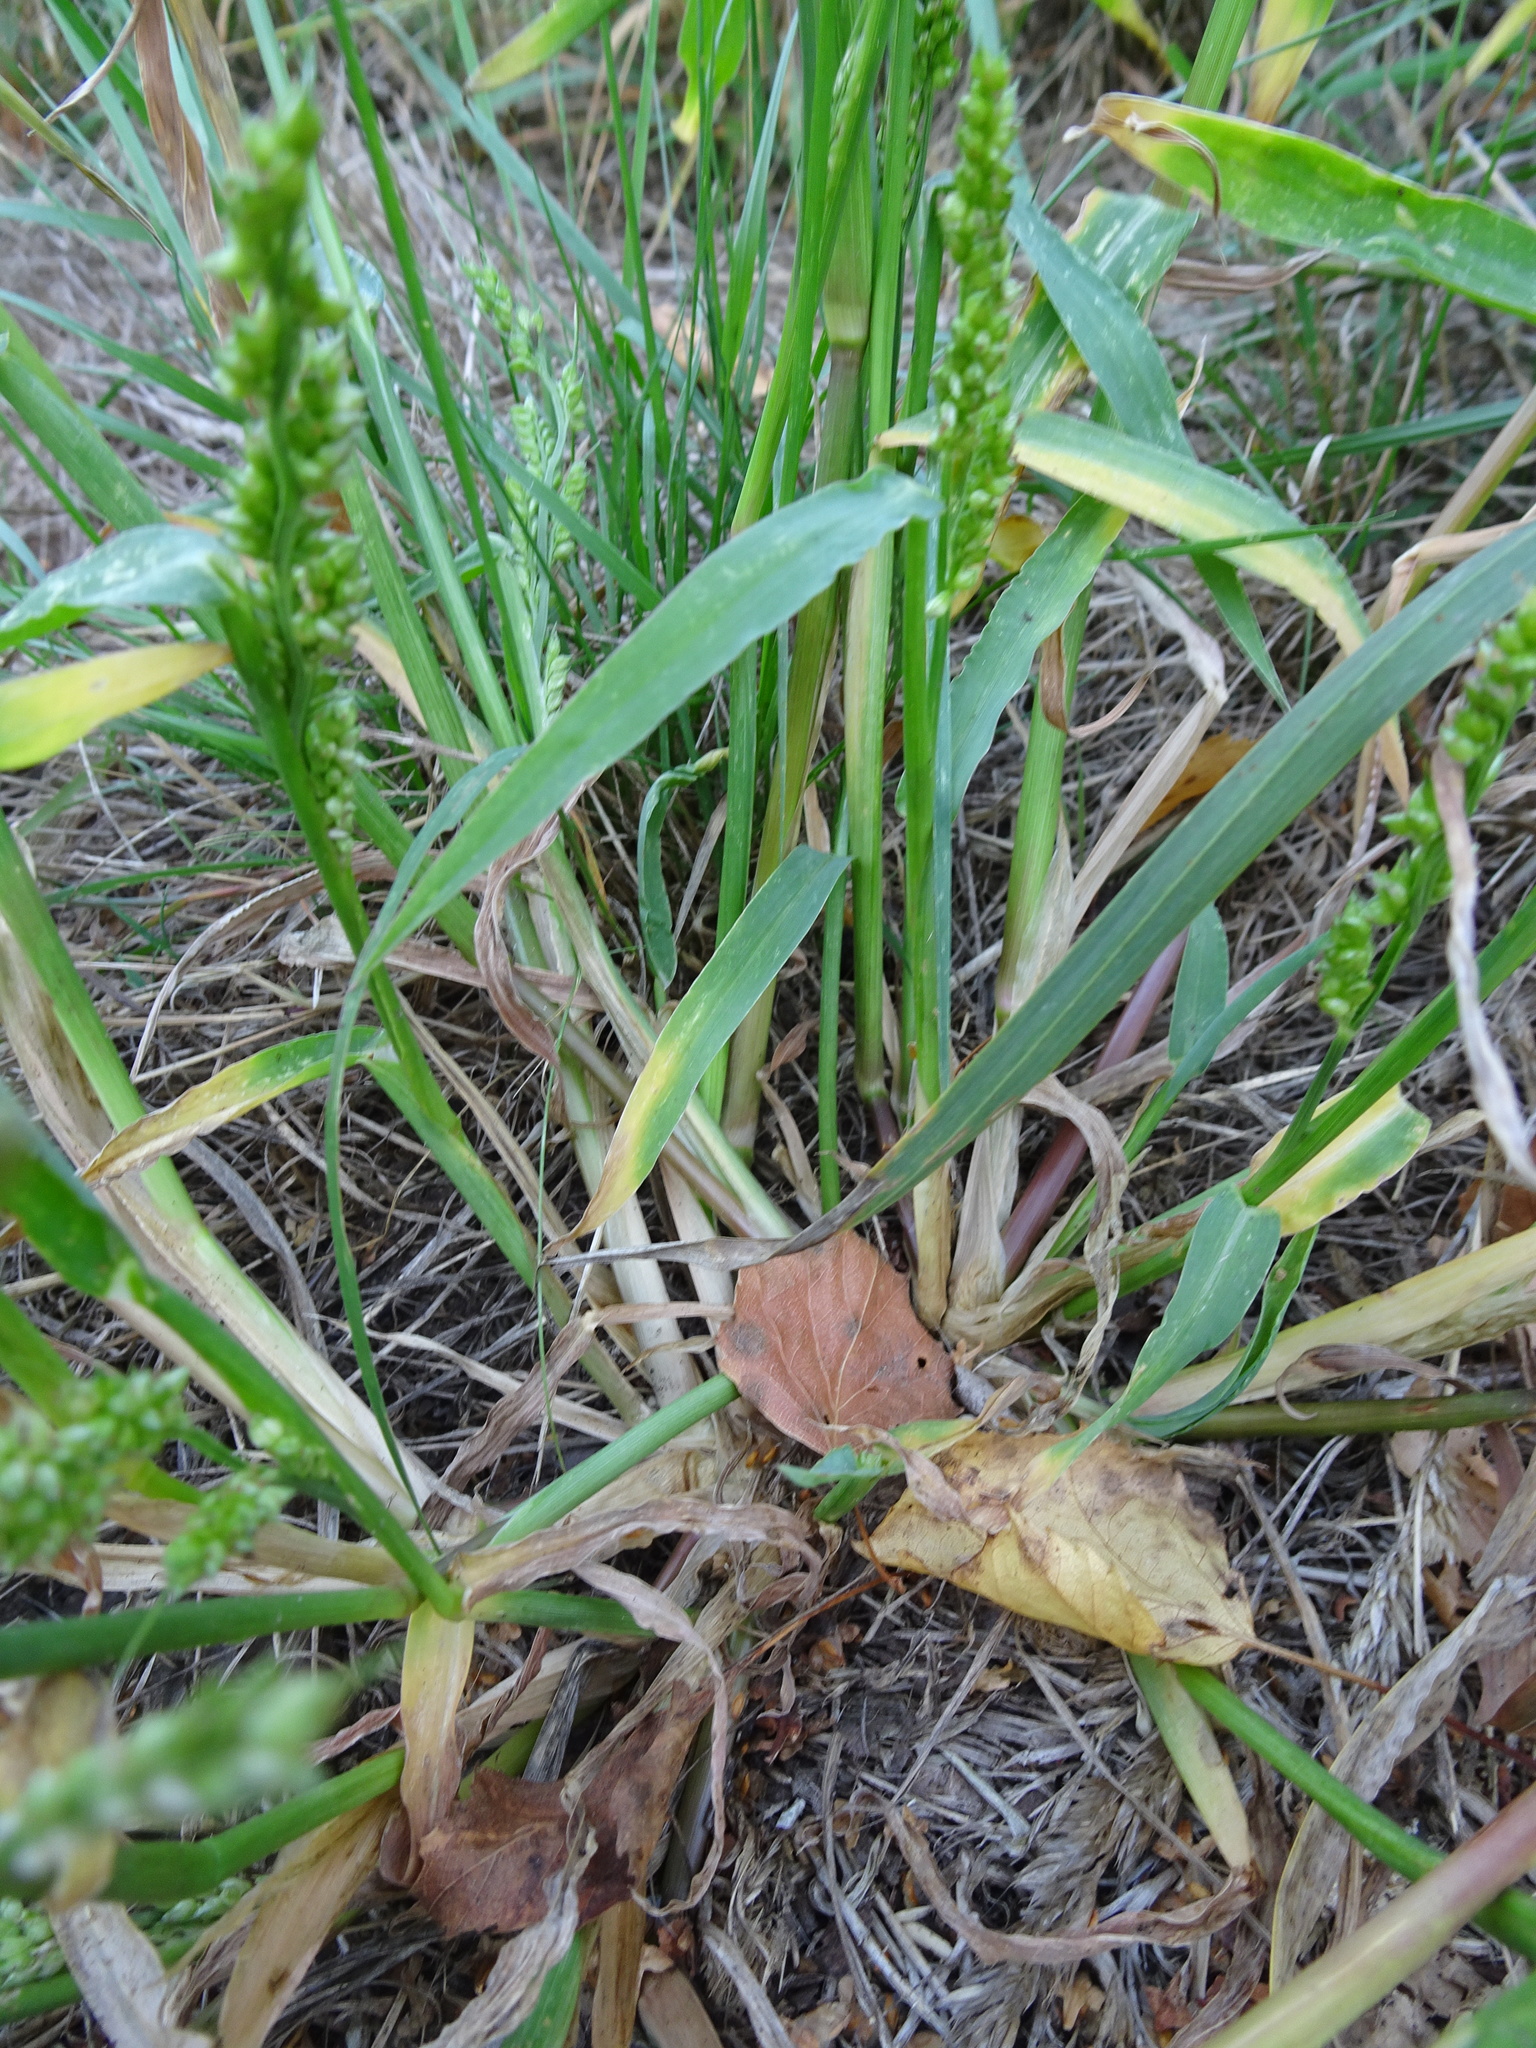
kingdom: Plantae
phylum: Tracheophyta
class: Liliopsida
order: Poales
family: Poaceae
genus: Echinochloa
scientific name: Echinochloa crus-galli
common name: Cockspur
